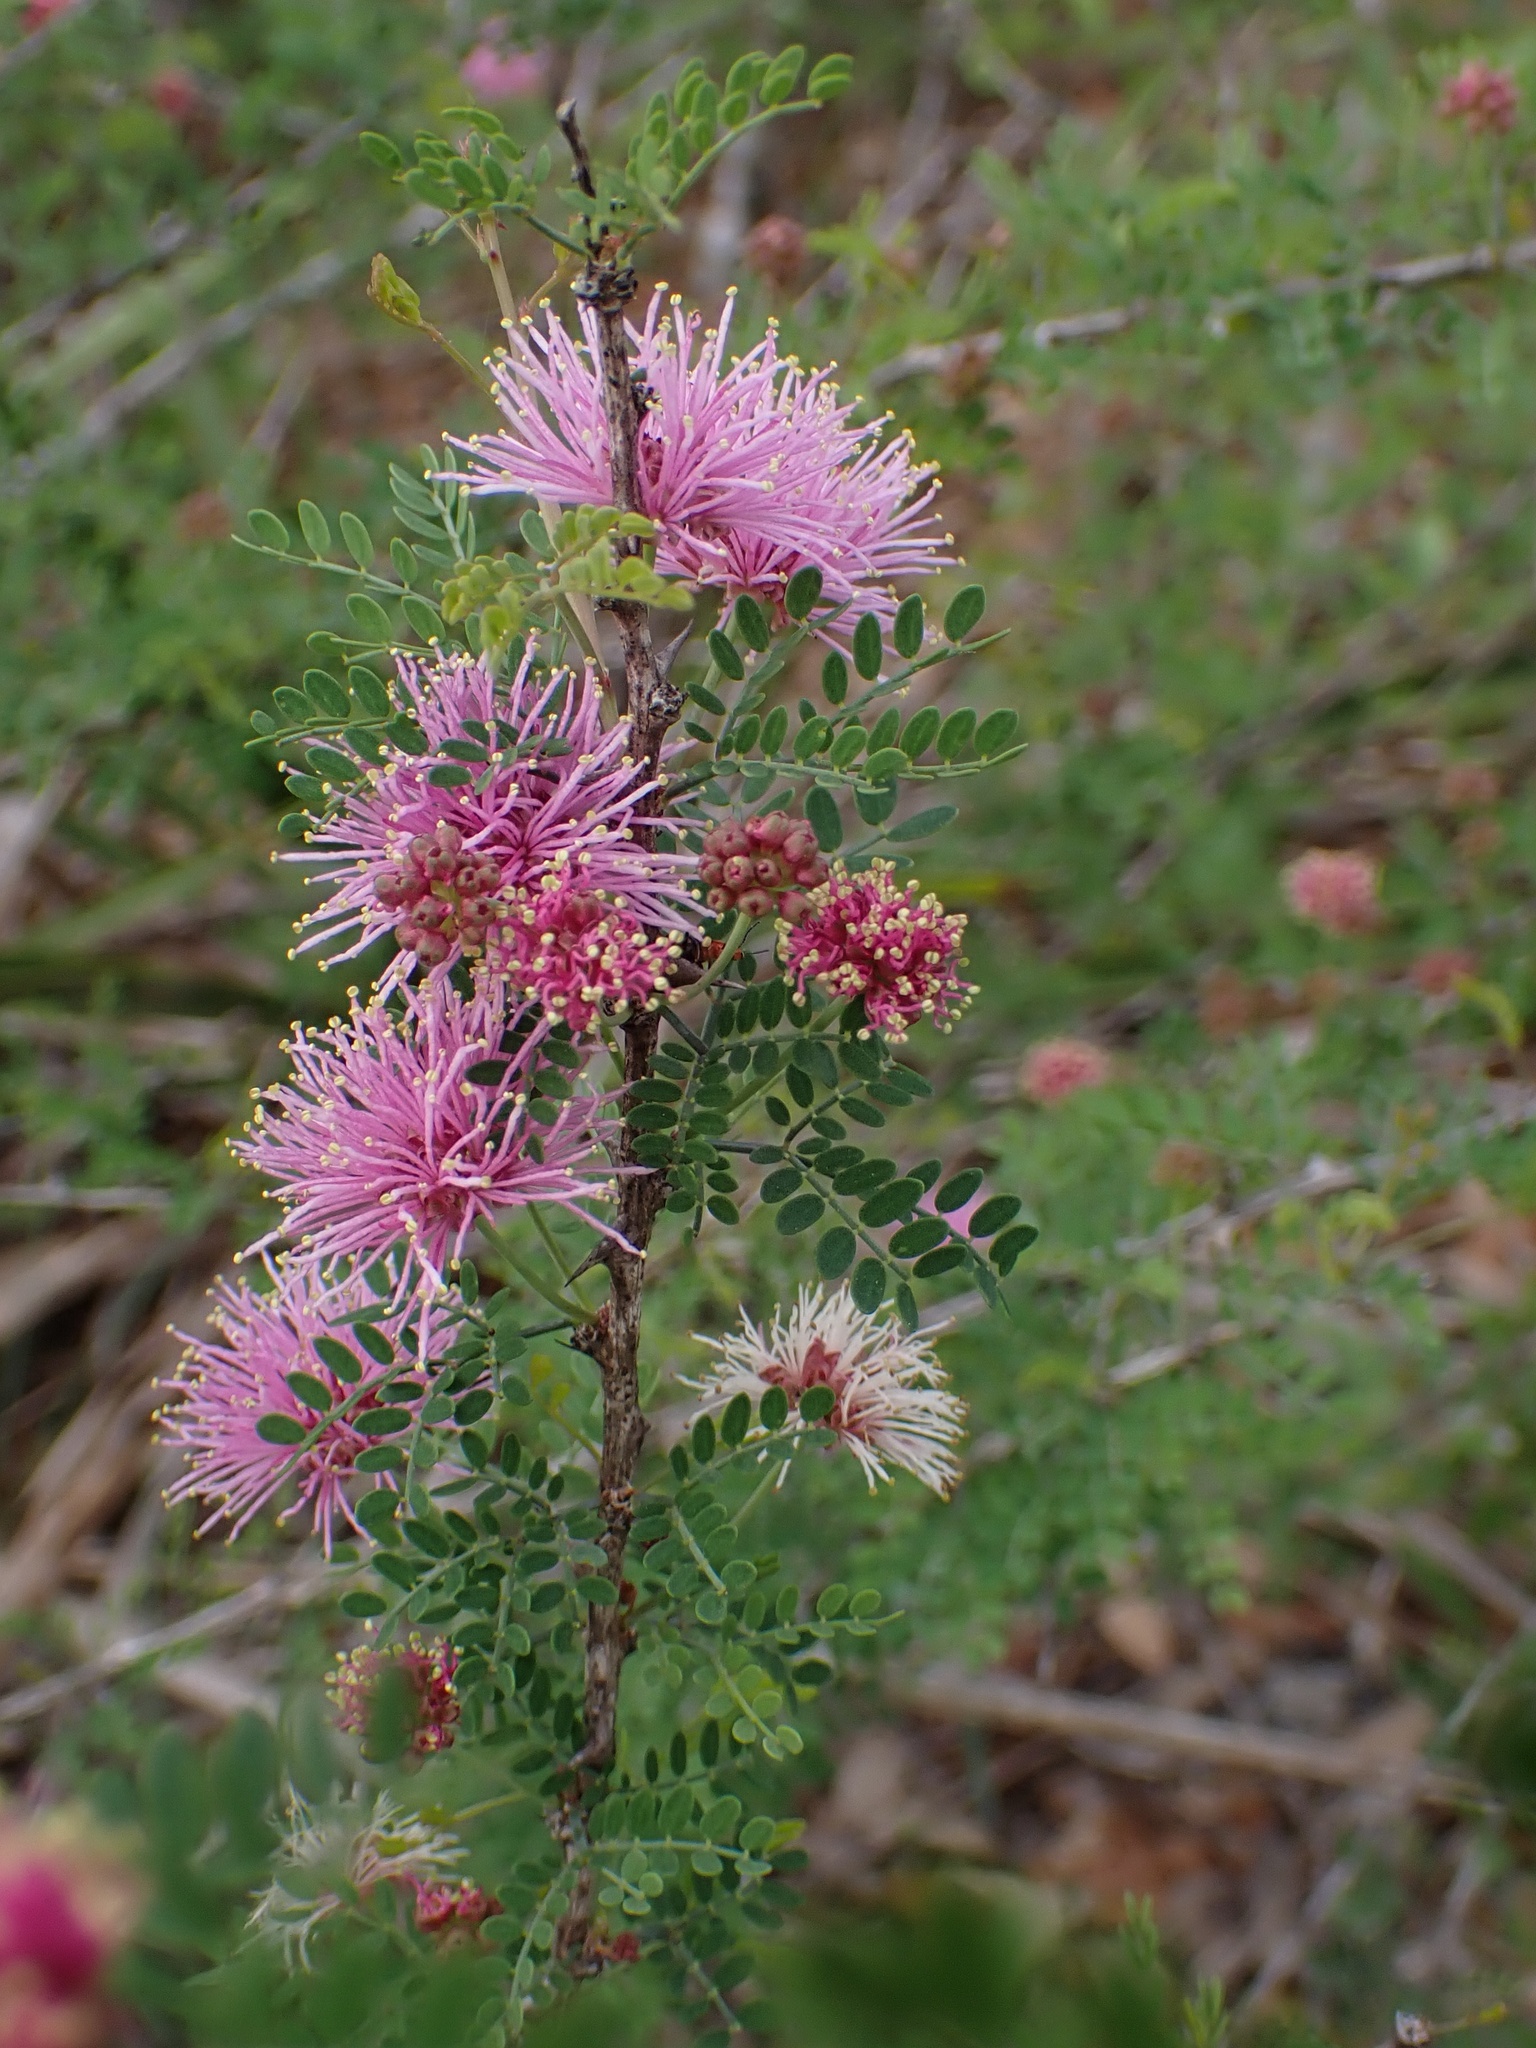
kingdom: Plantae
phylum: Tracheophyta
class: Magnoliopsida
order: Fabales
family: Fabaceae
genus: Mimosa
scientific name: Mimosa borealis
